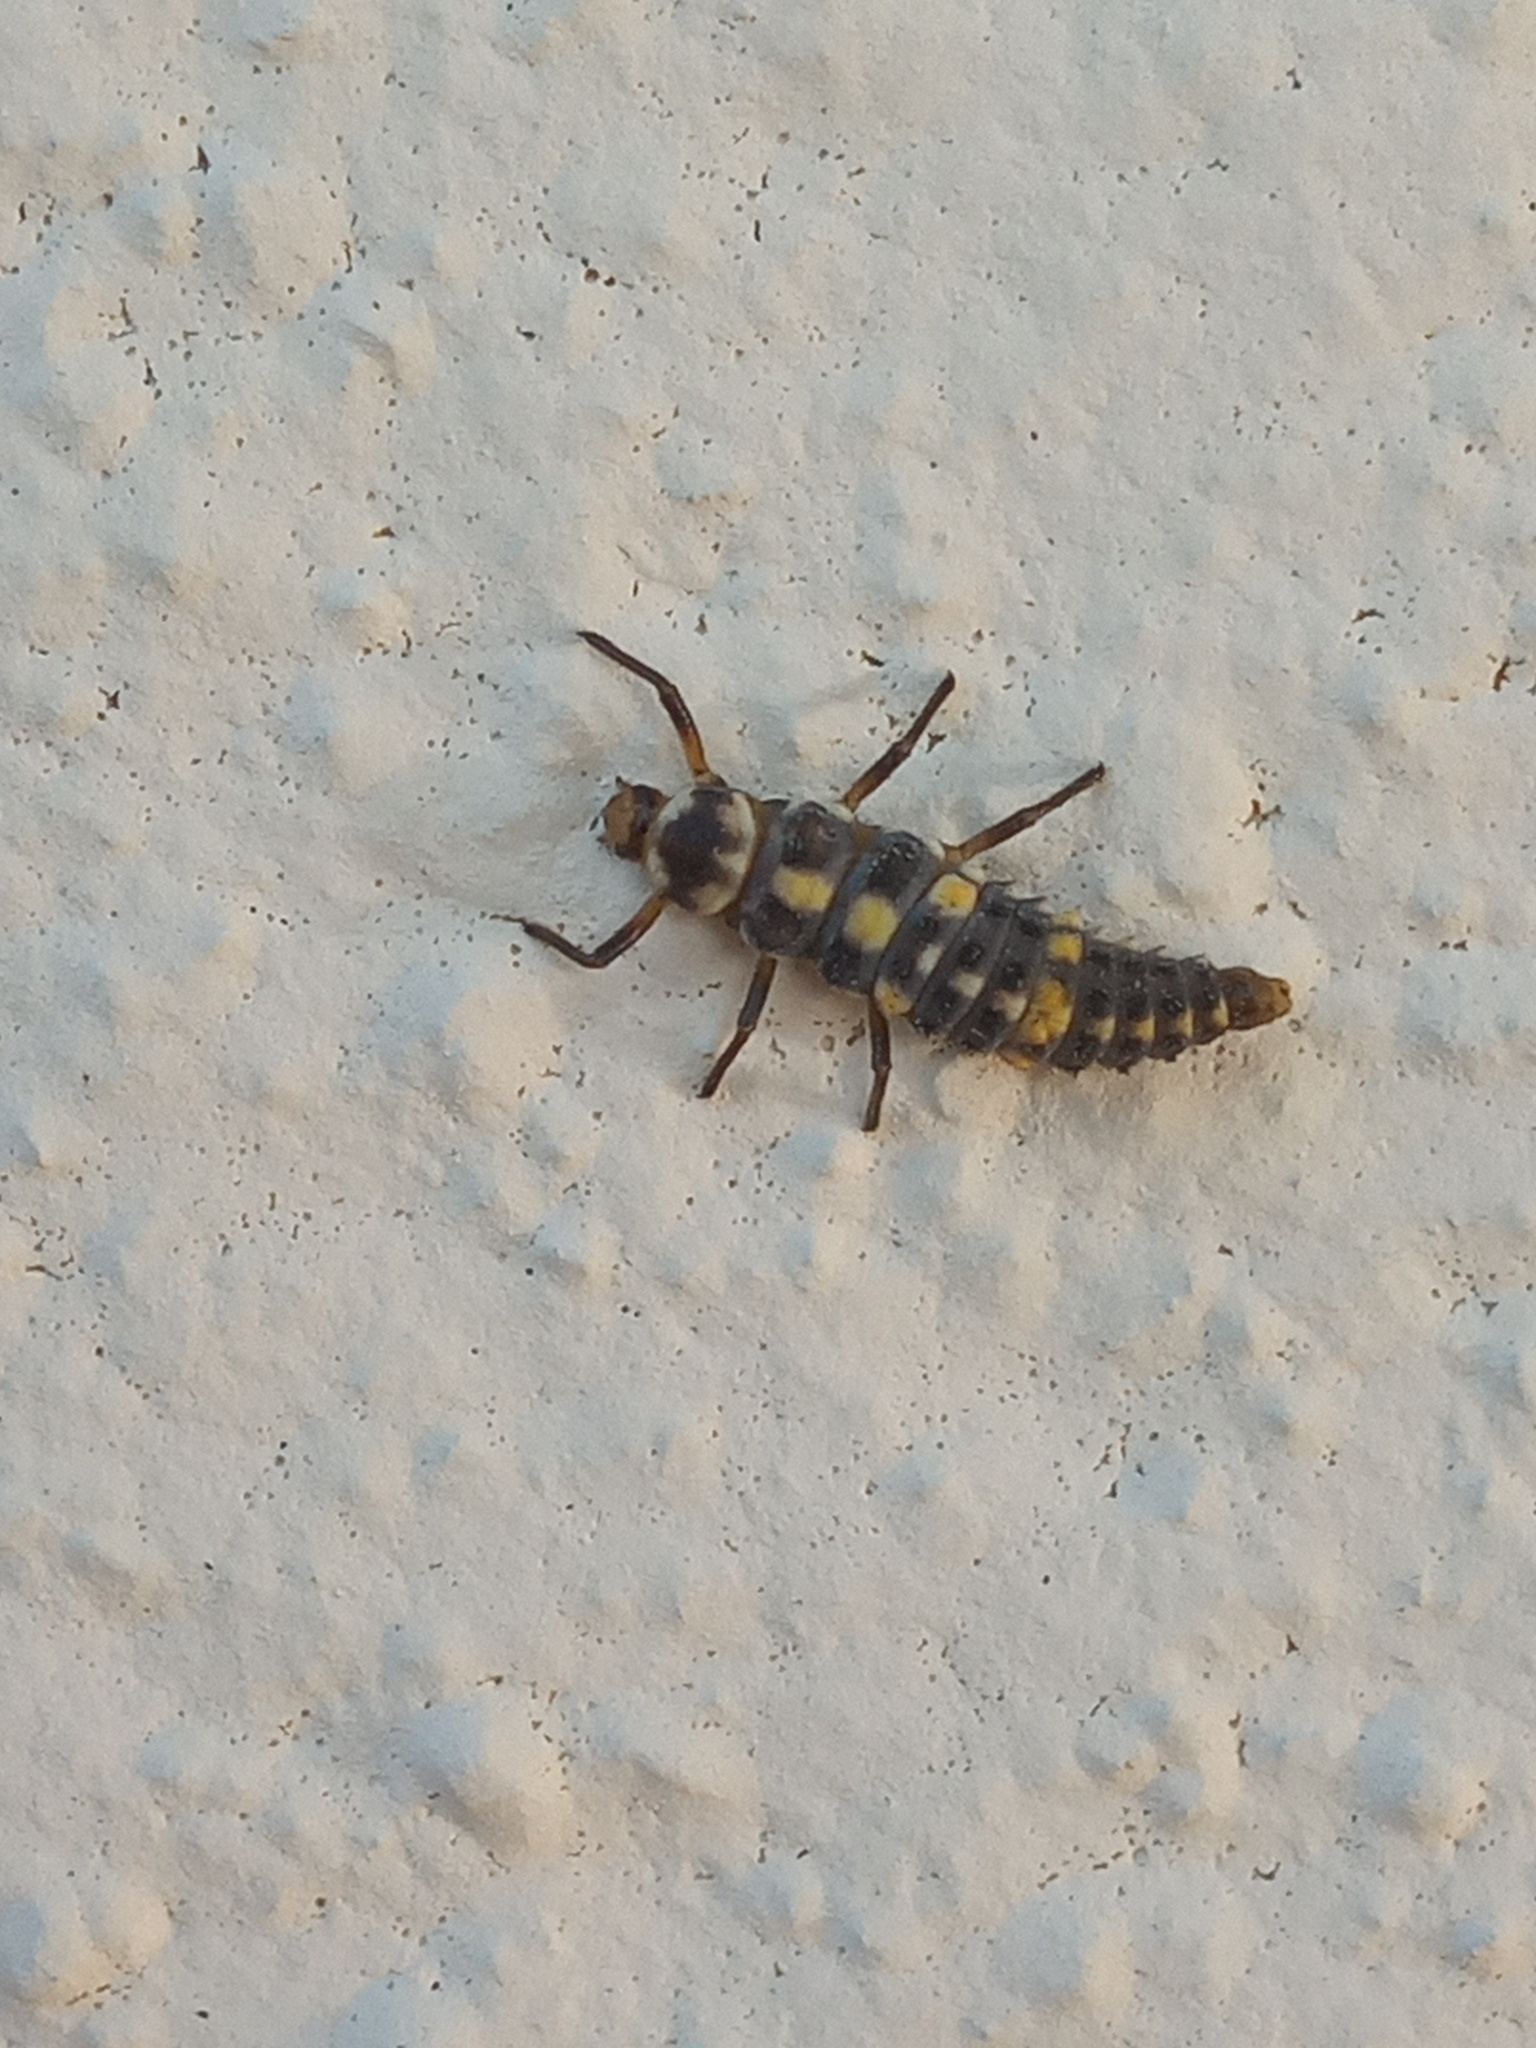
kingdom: Animalia
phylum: Arthropoda
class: Insecta
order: Coleoptera
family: Coccinellidae
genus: Olla
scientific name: Olla v-nigrum
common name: Ashy gray lady beetle
